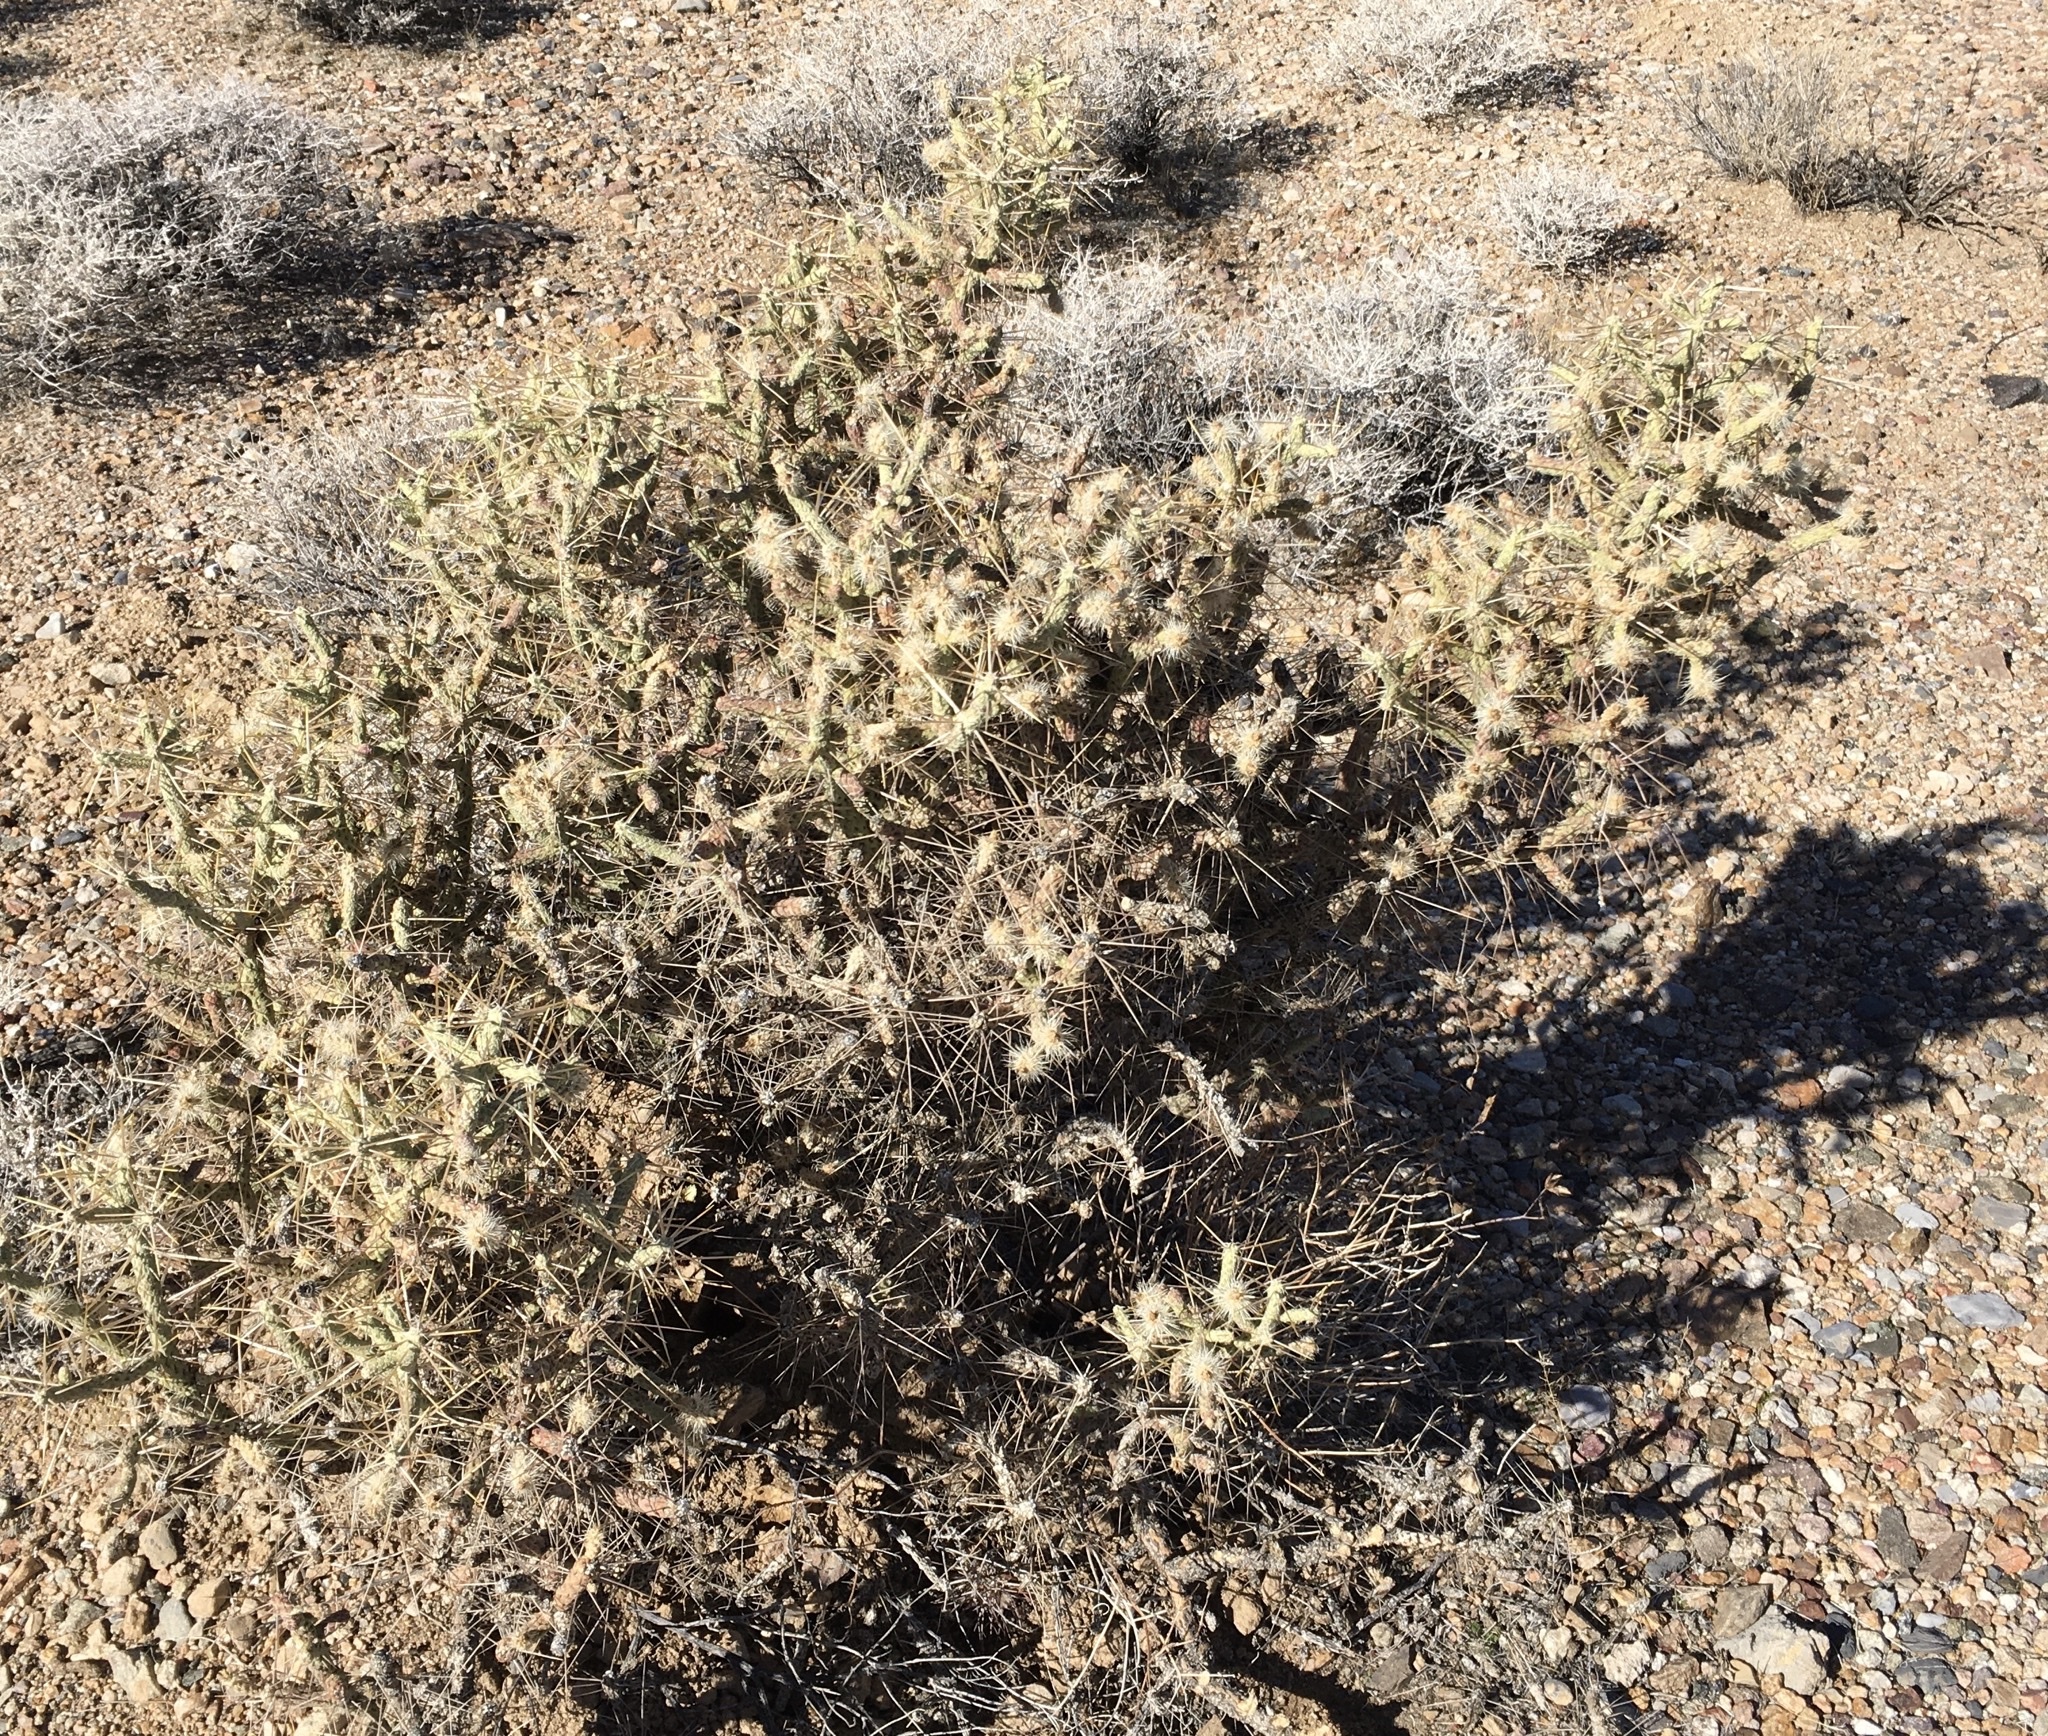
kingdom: Plantae
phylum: Tracheophyta
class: Magnoliopsida
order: Caryophyllales
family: Cactaceae
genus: Cylindropuntia
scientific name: Cylindropuntia ramosissima
